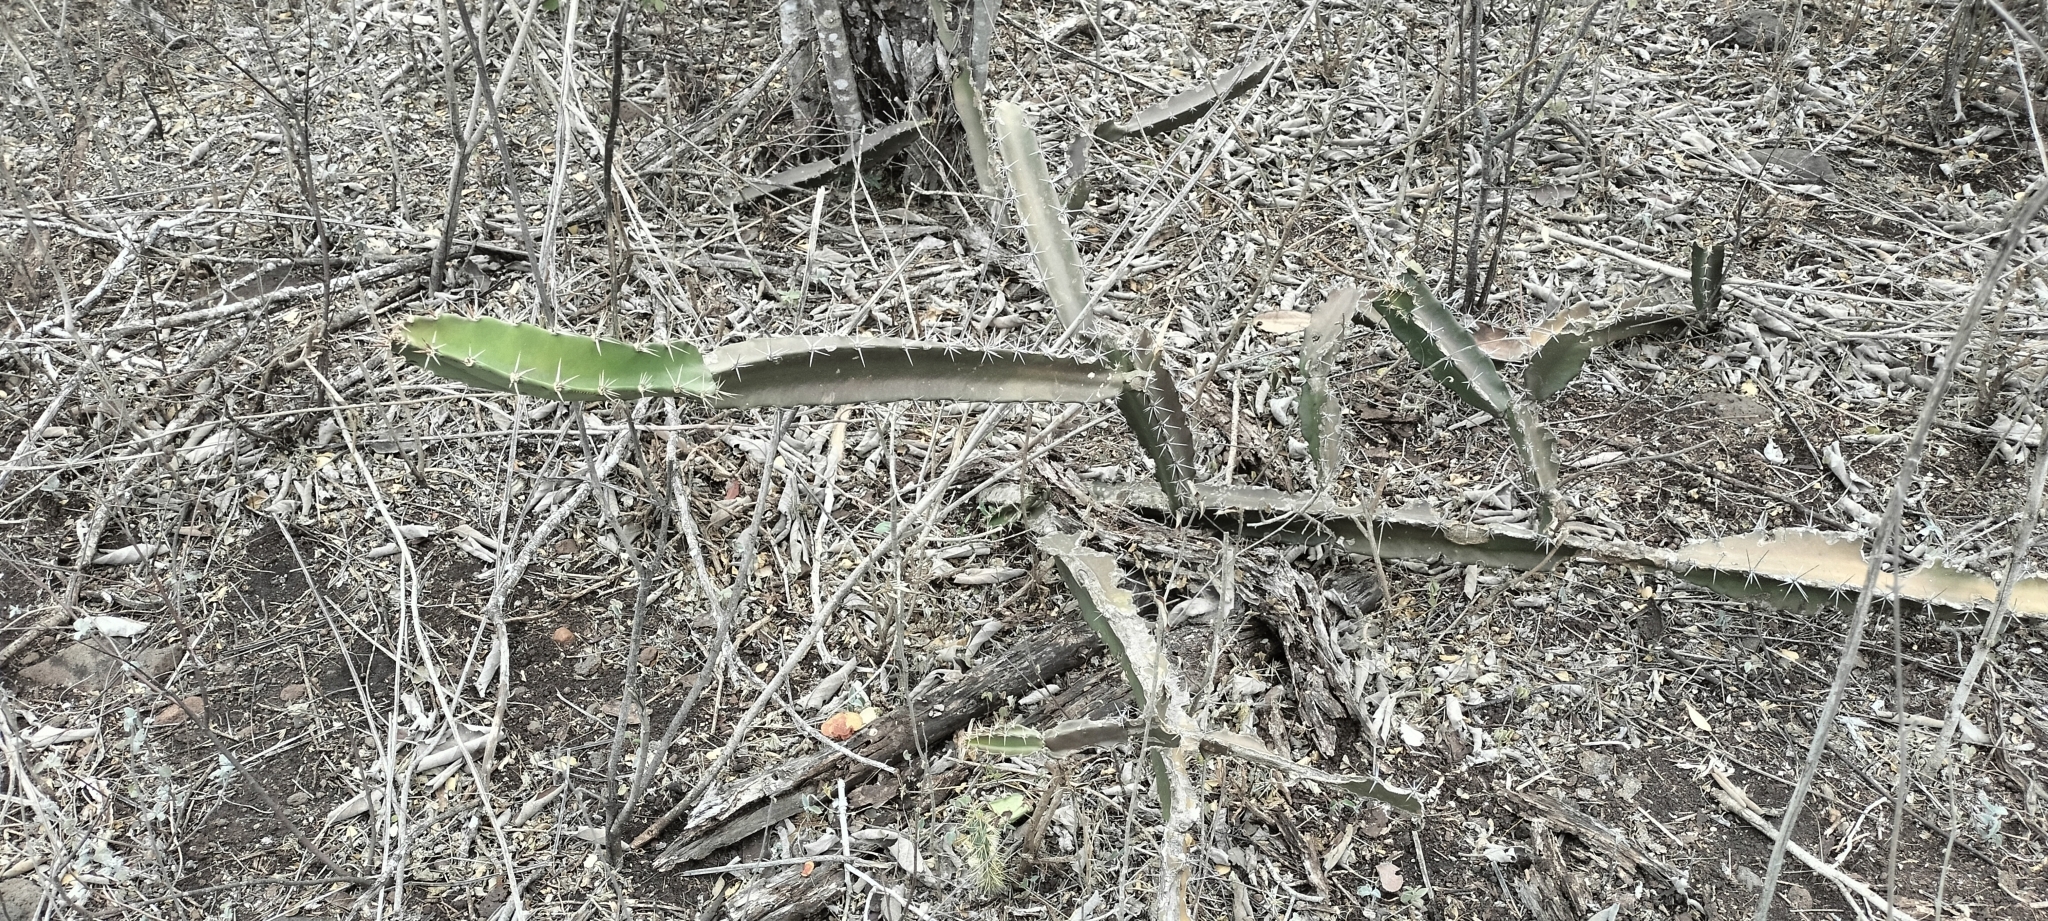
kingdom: Plantae
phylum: Tracheophyta
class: Magnoliopsida
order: Caryophyllales
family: Cactaceae
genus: Acanthocereus
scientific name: Acanthocereus tetragonus
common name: Triangle cactus
